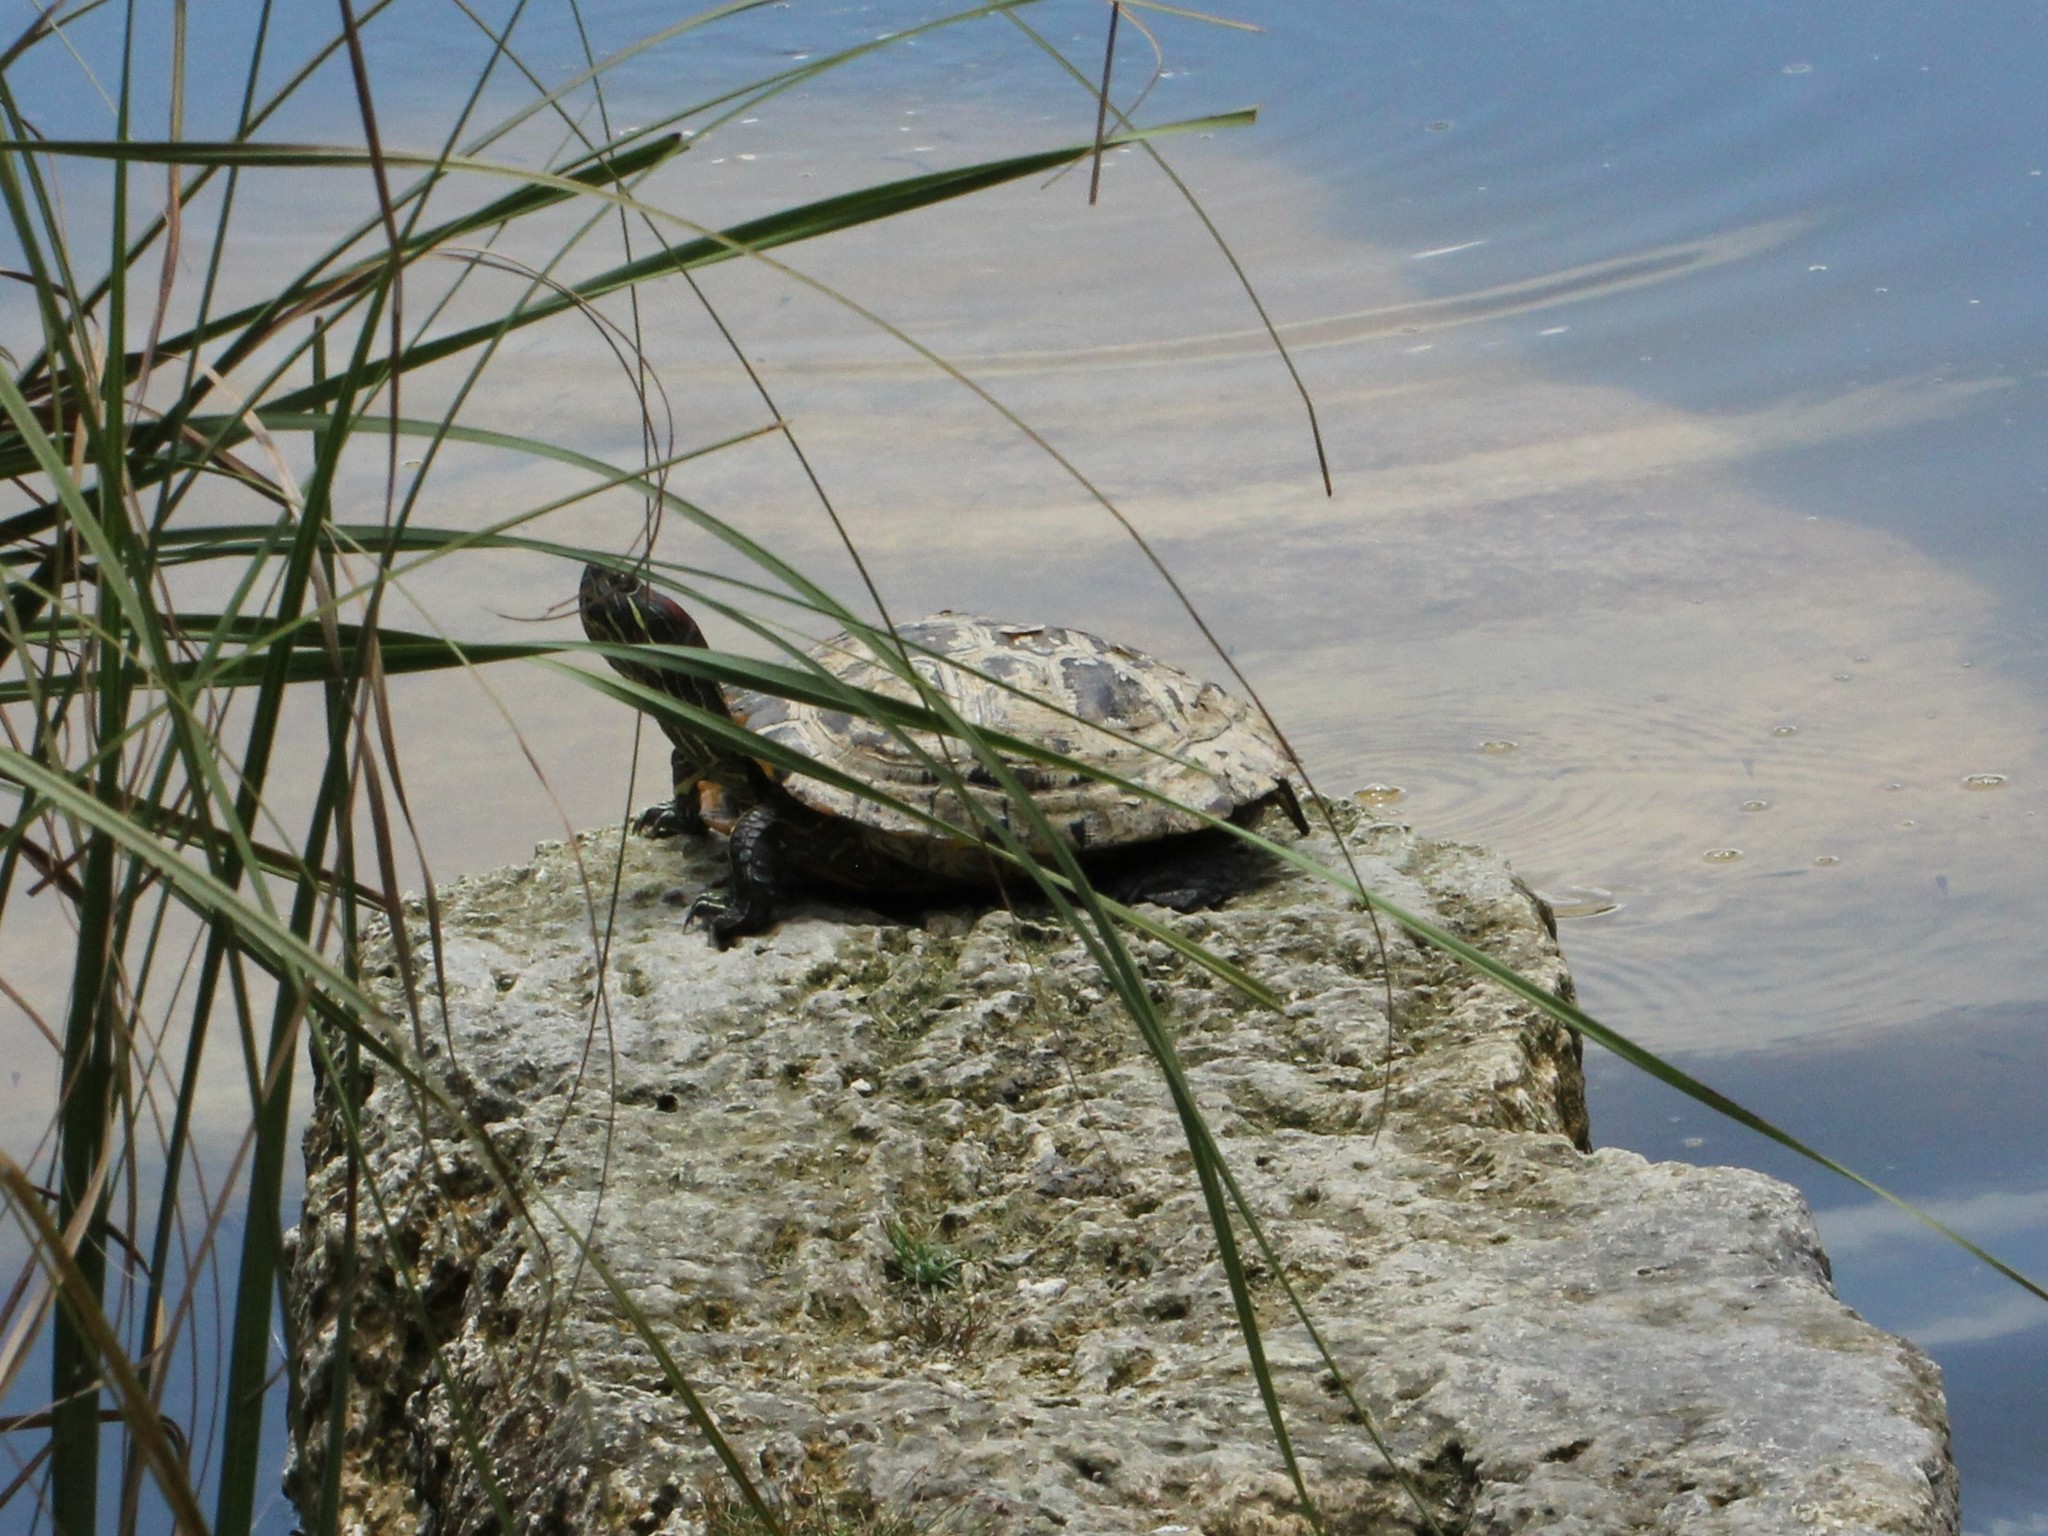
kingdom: Animalia
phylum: Chordata
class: Testudines
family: Emydidae
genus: Trachemys
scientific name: Trachemys scripta
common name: Slider
